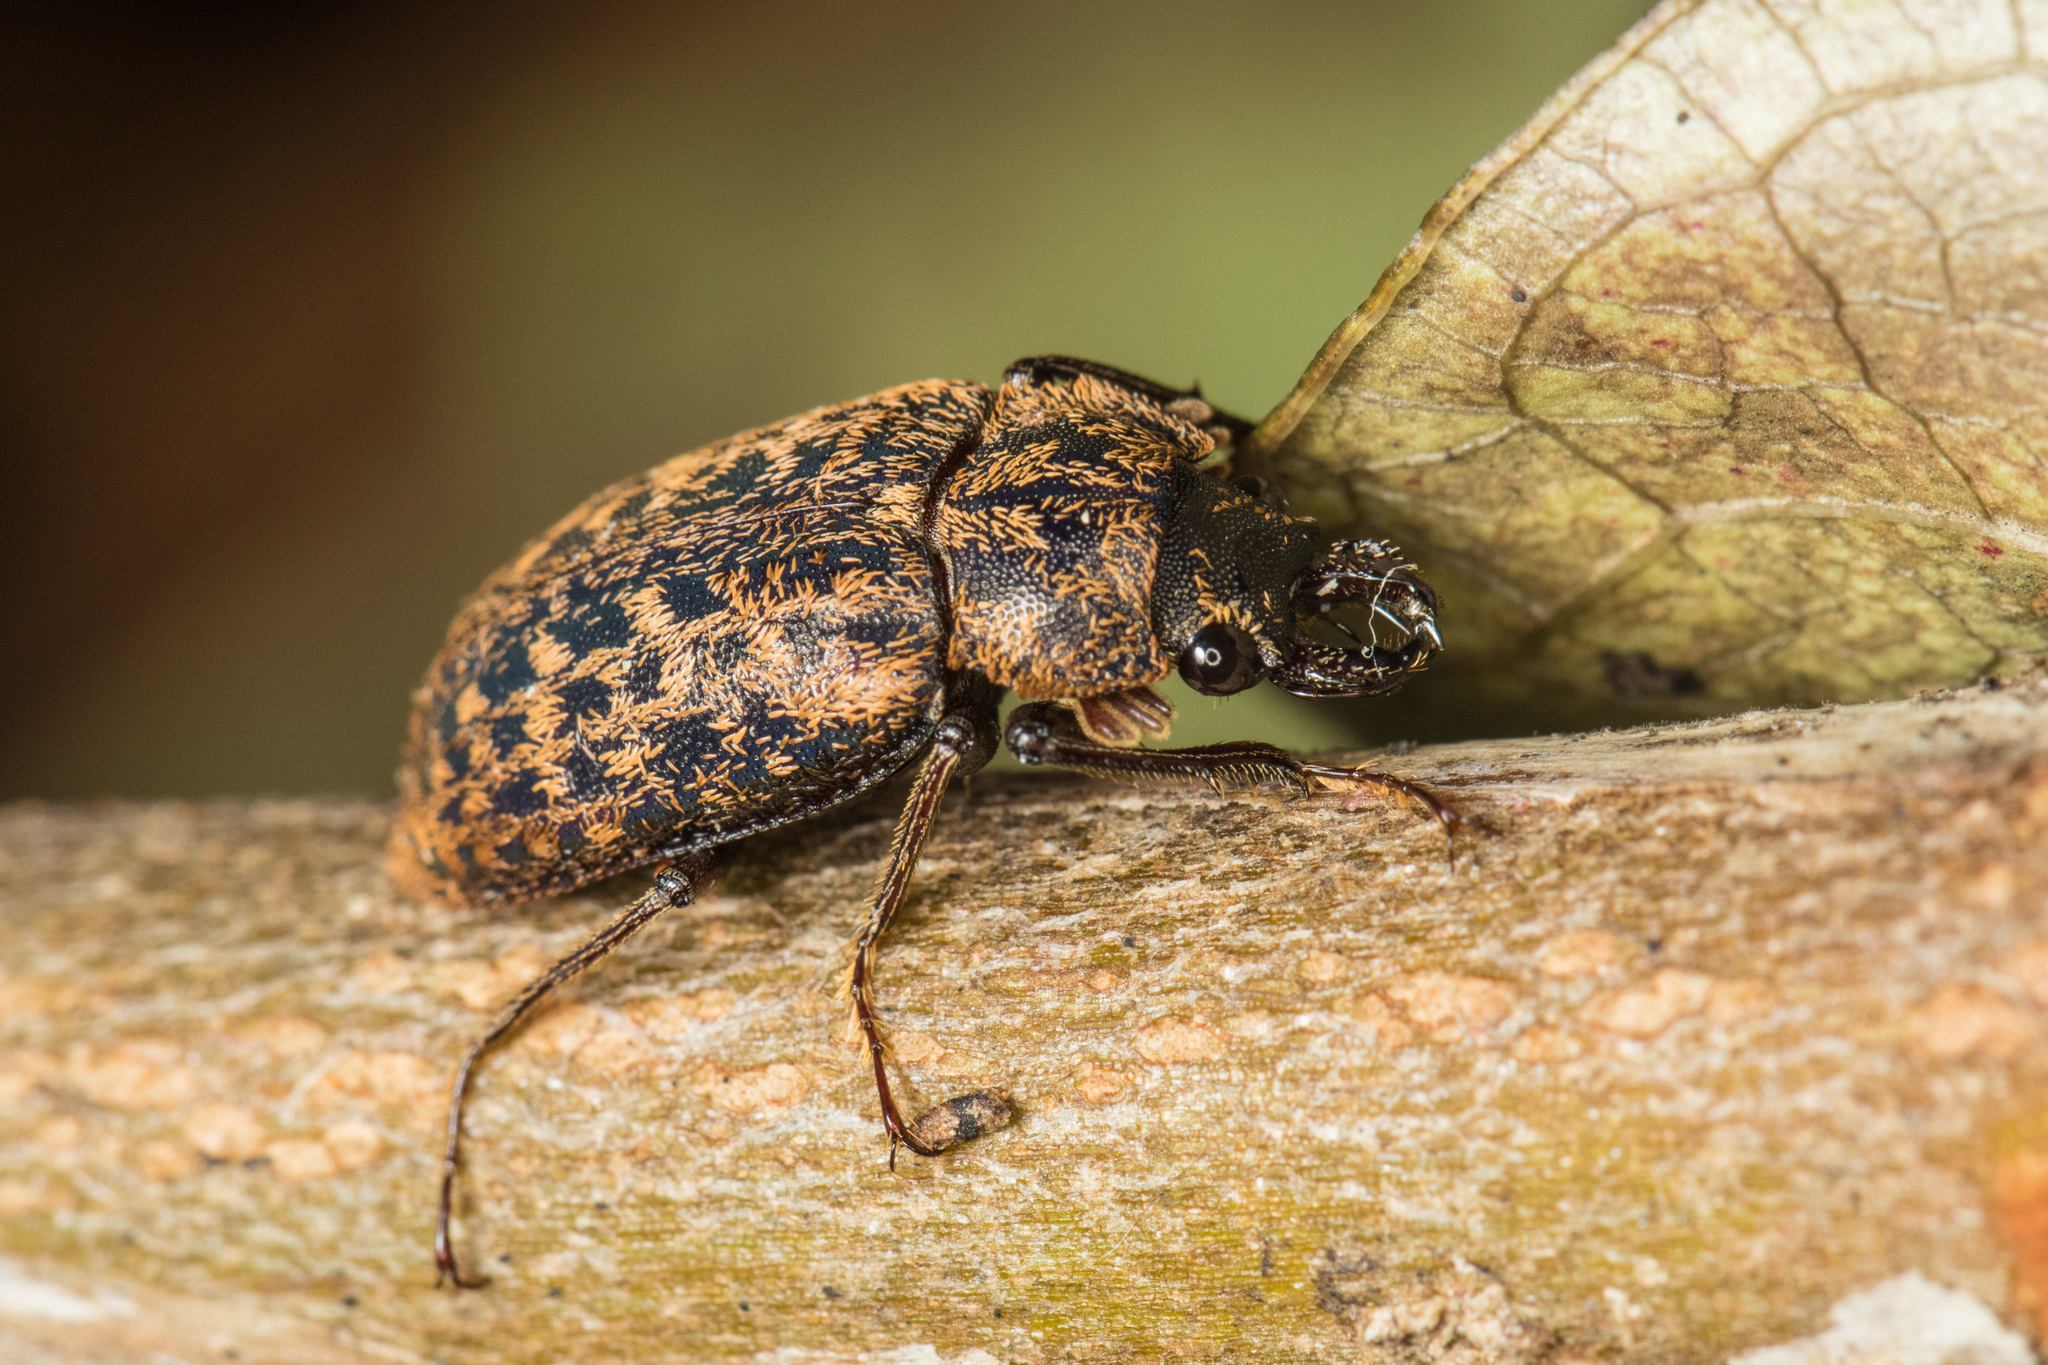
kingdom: Animalia
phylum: Arthropoda
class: Insecta
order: Coleoptera
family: Lucanidae
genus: Mitophyllus
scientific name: Mitophyllus falcatus
